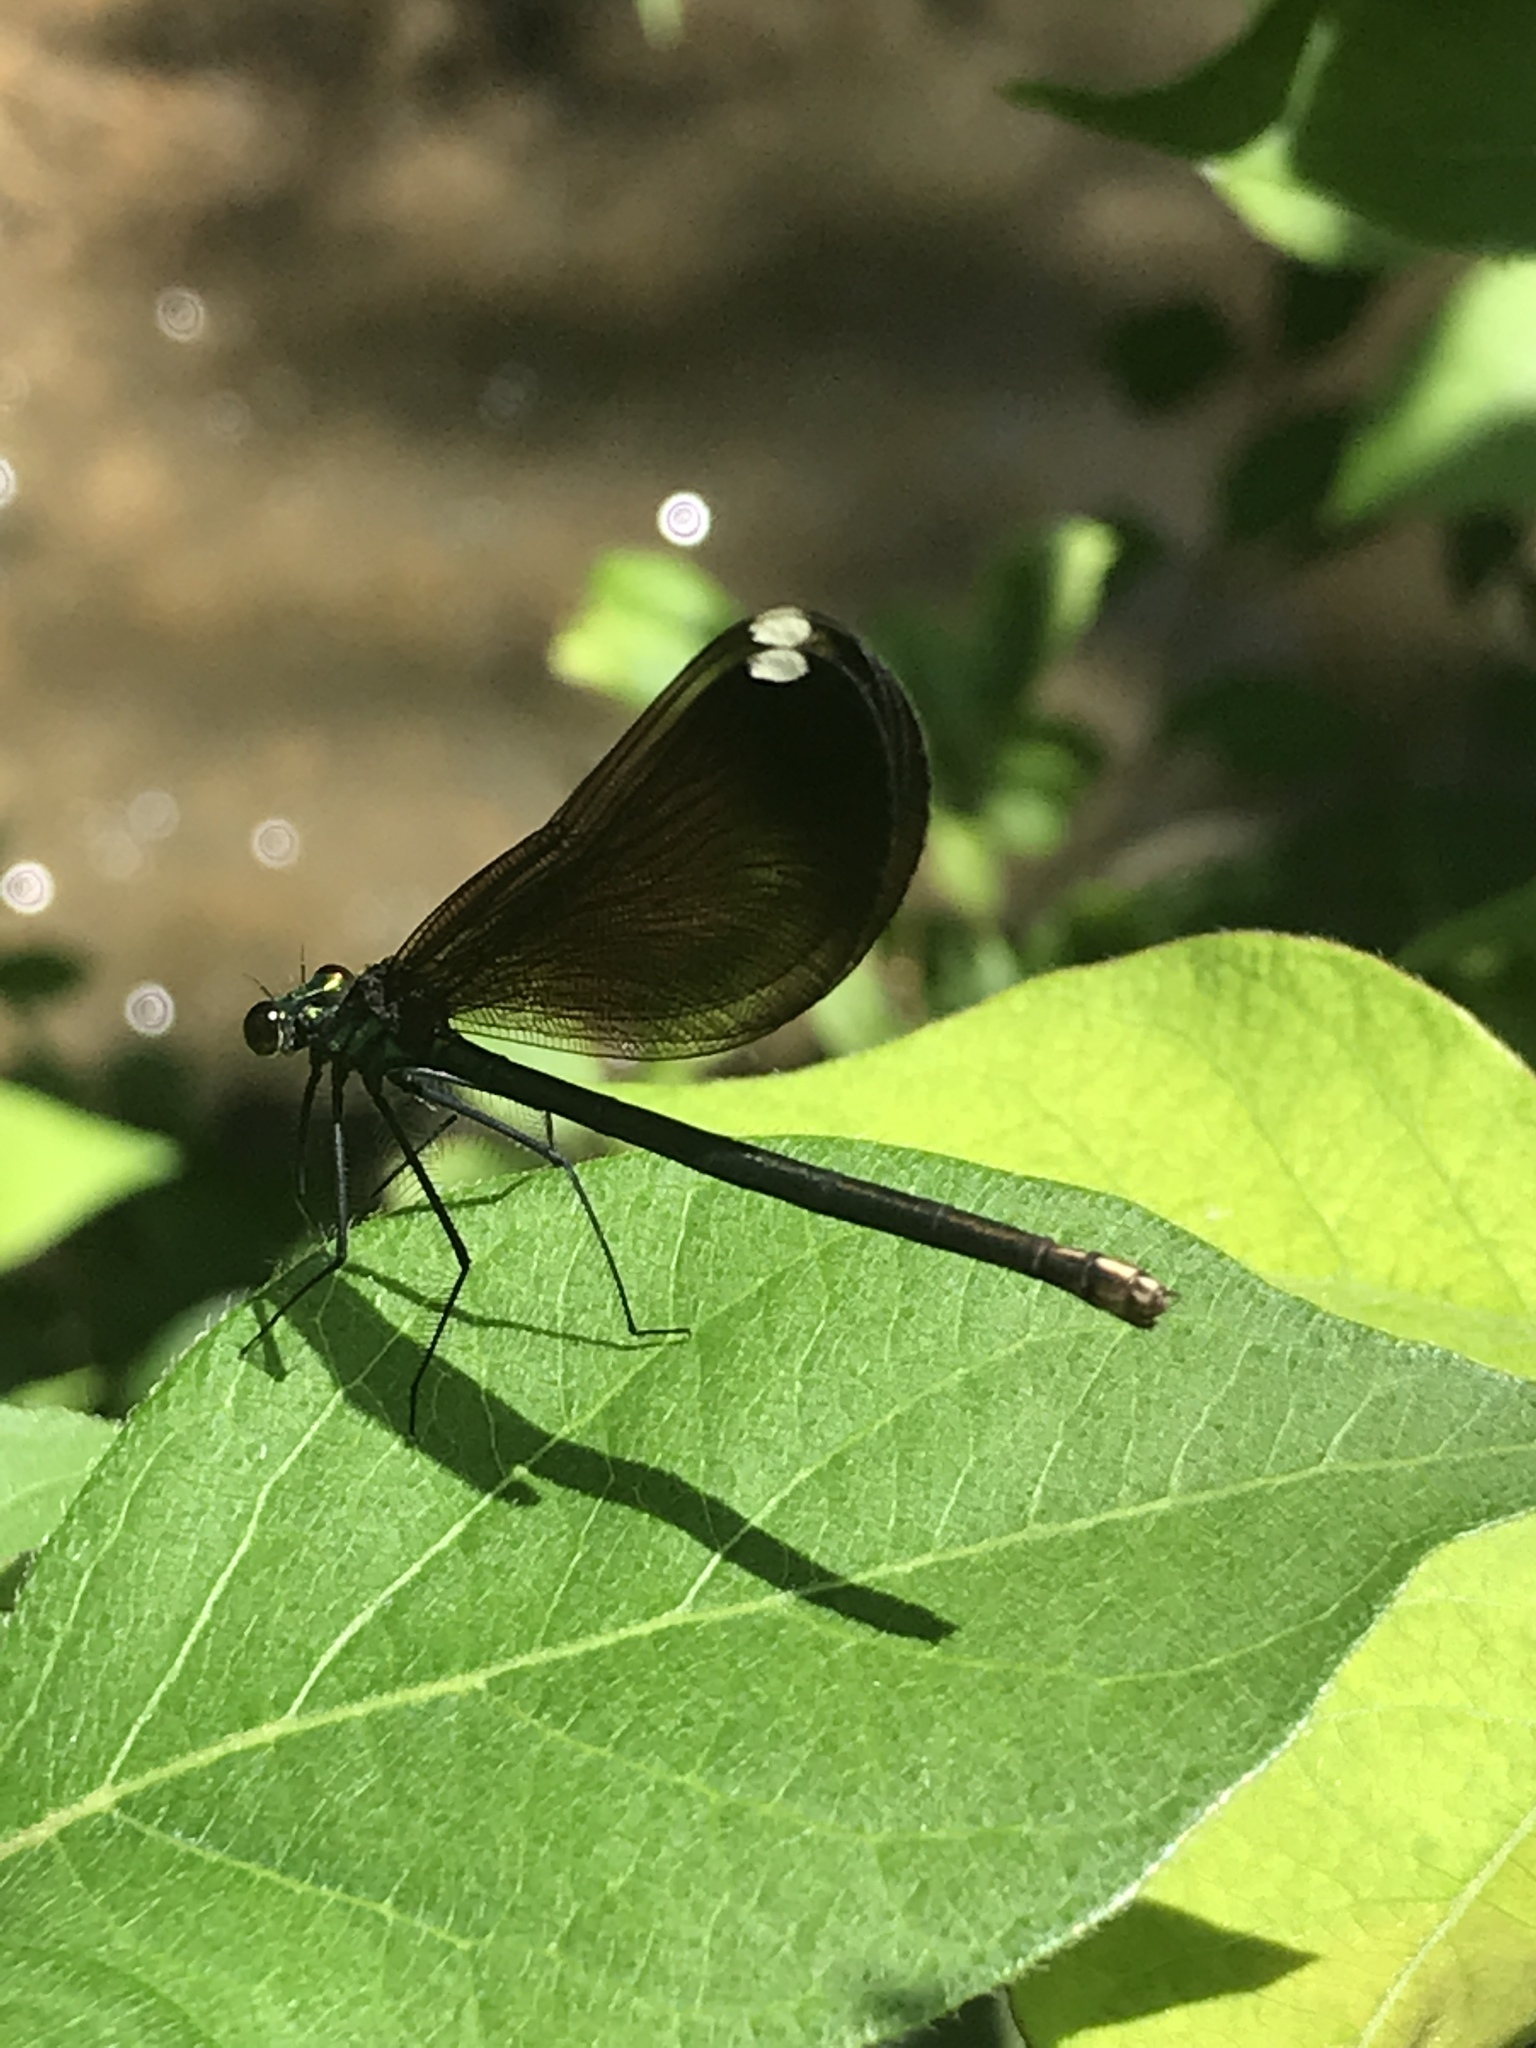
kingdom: Animalia
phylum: Arthropoda
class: Insecta
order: Odonata
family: Calopterygidae
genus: Calopteryx
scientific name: Calopteryx maculata
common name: Ebony jewelwing
